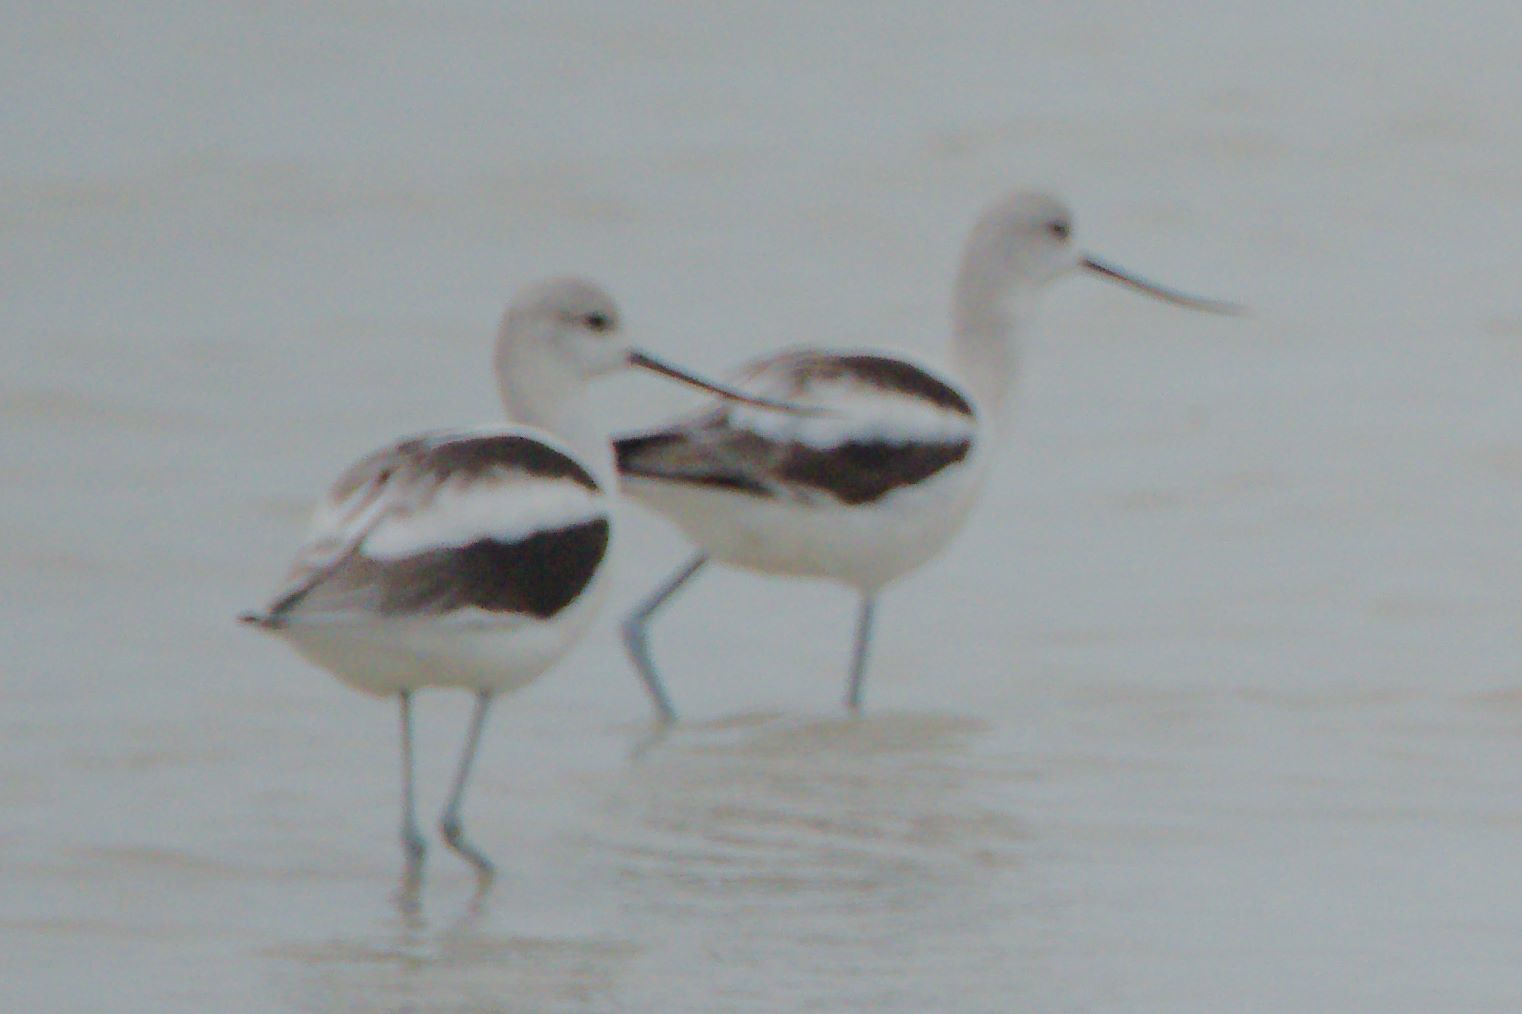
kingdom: Animalia
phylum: Chordata
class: Aves
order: Charadriiformes
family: Recurvirostridae
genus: Recurvirostra
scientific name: Recurvirostra americana
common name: American avocet
